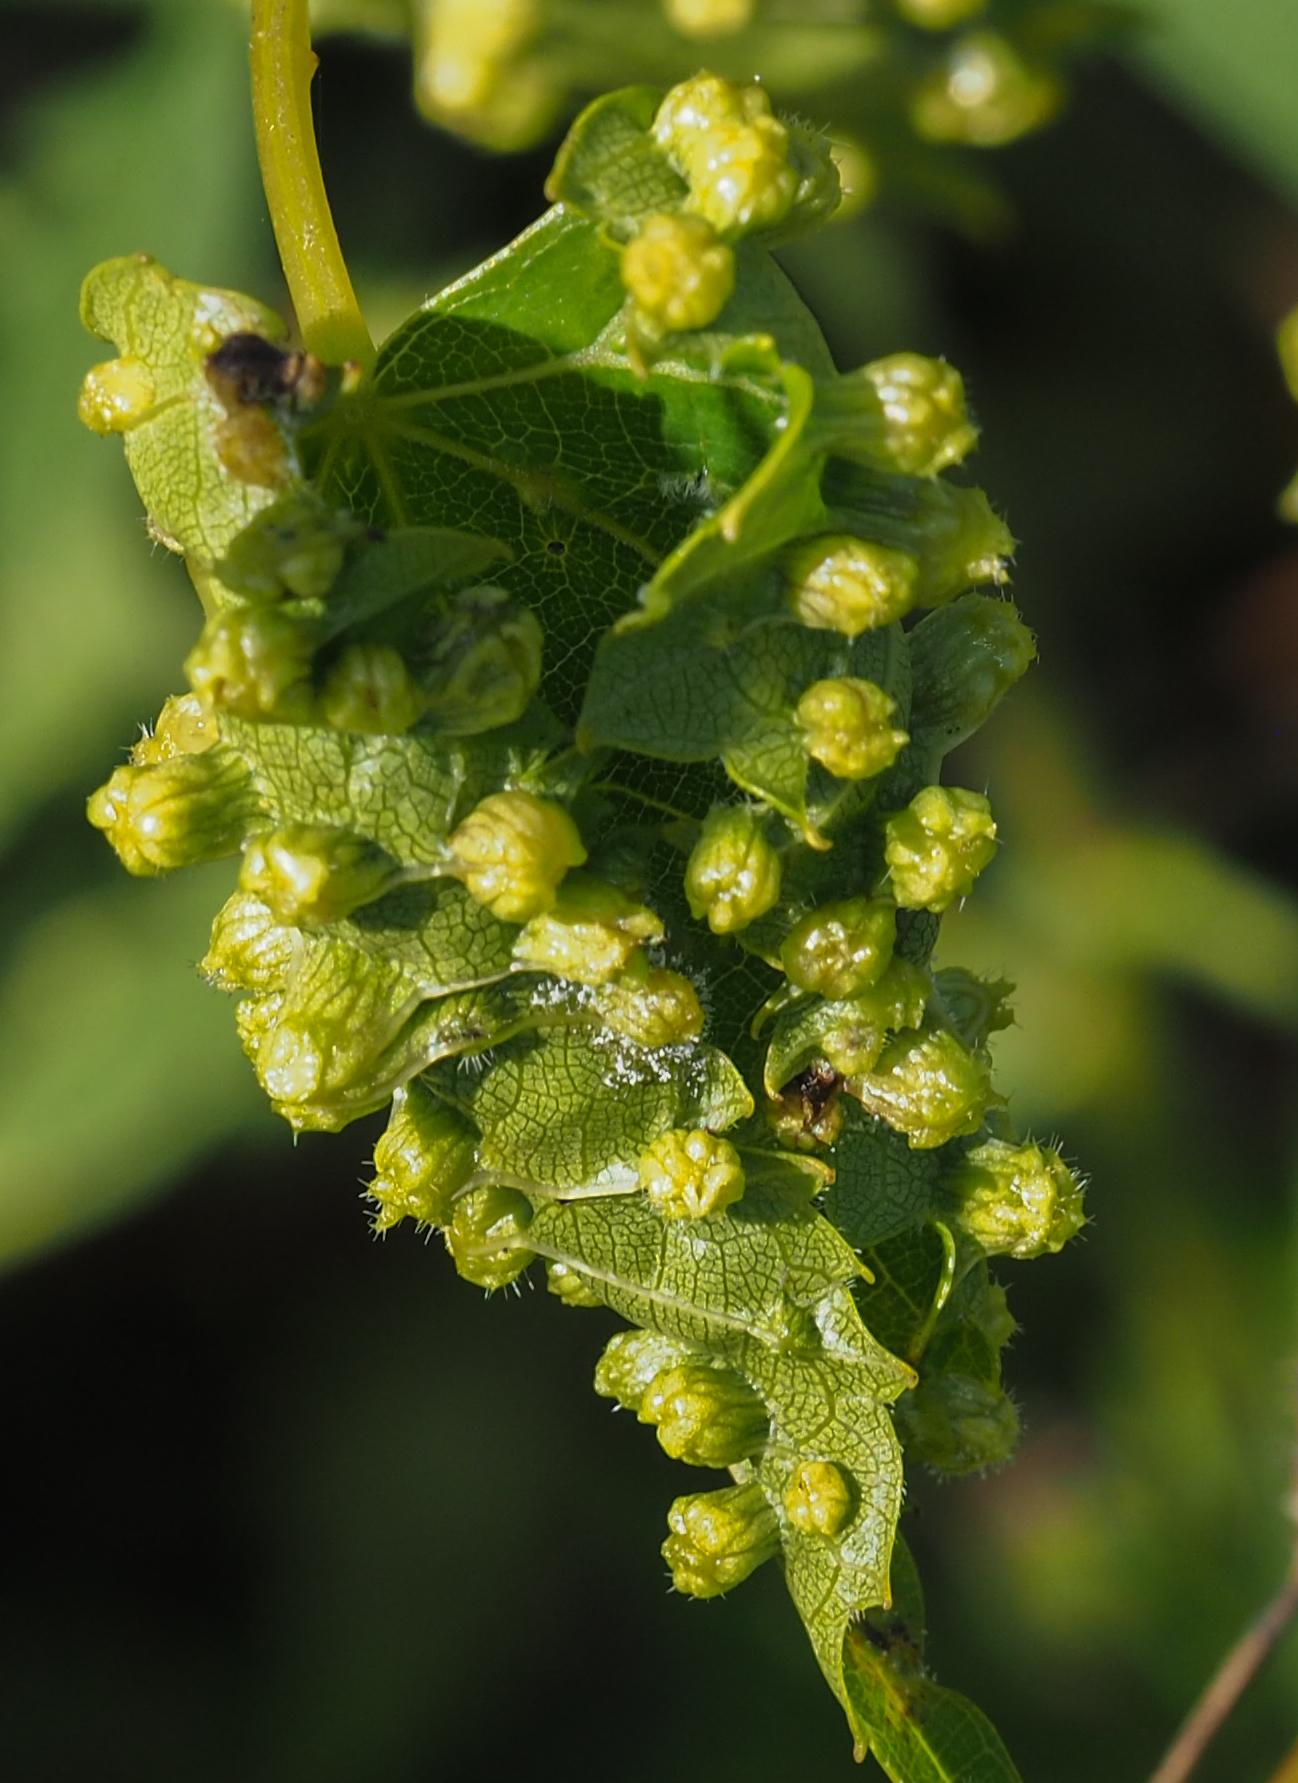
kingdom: Animalia
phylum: Arthropoda
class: Insecta
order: Hemiptera
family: Phylloxeridae
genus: Daktulosphaira
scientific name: Daktulosphaira vitifoliae
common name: Grape phylloxera
